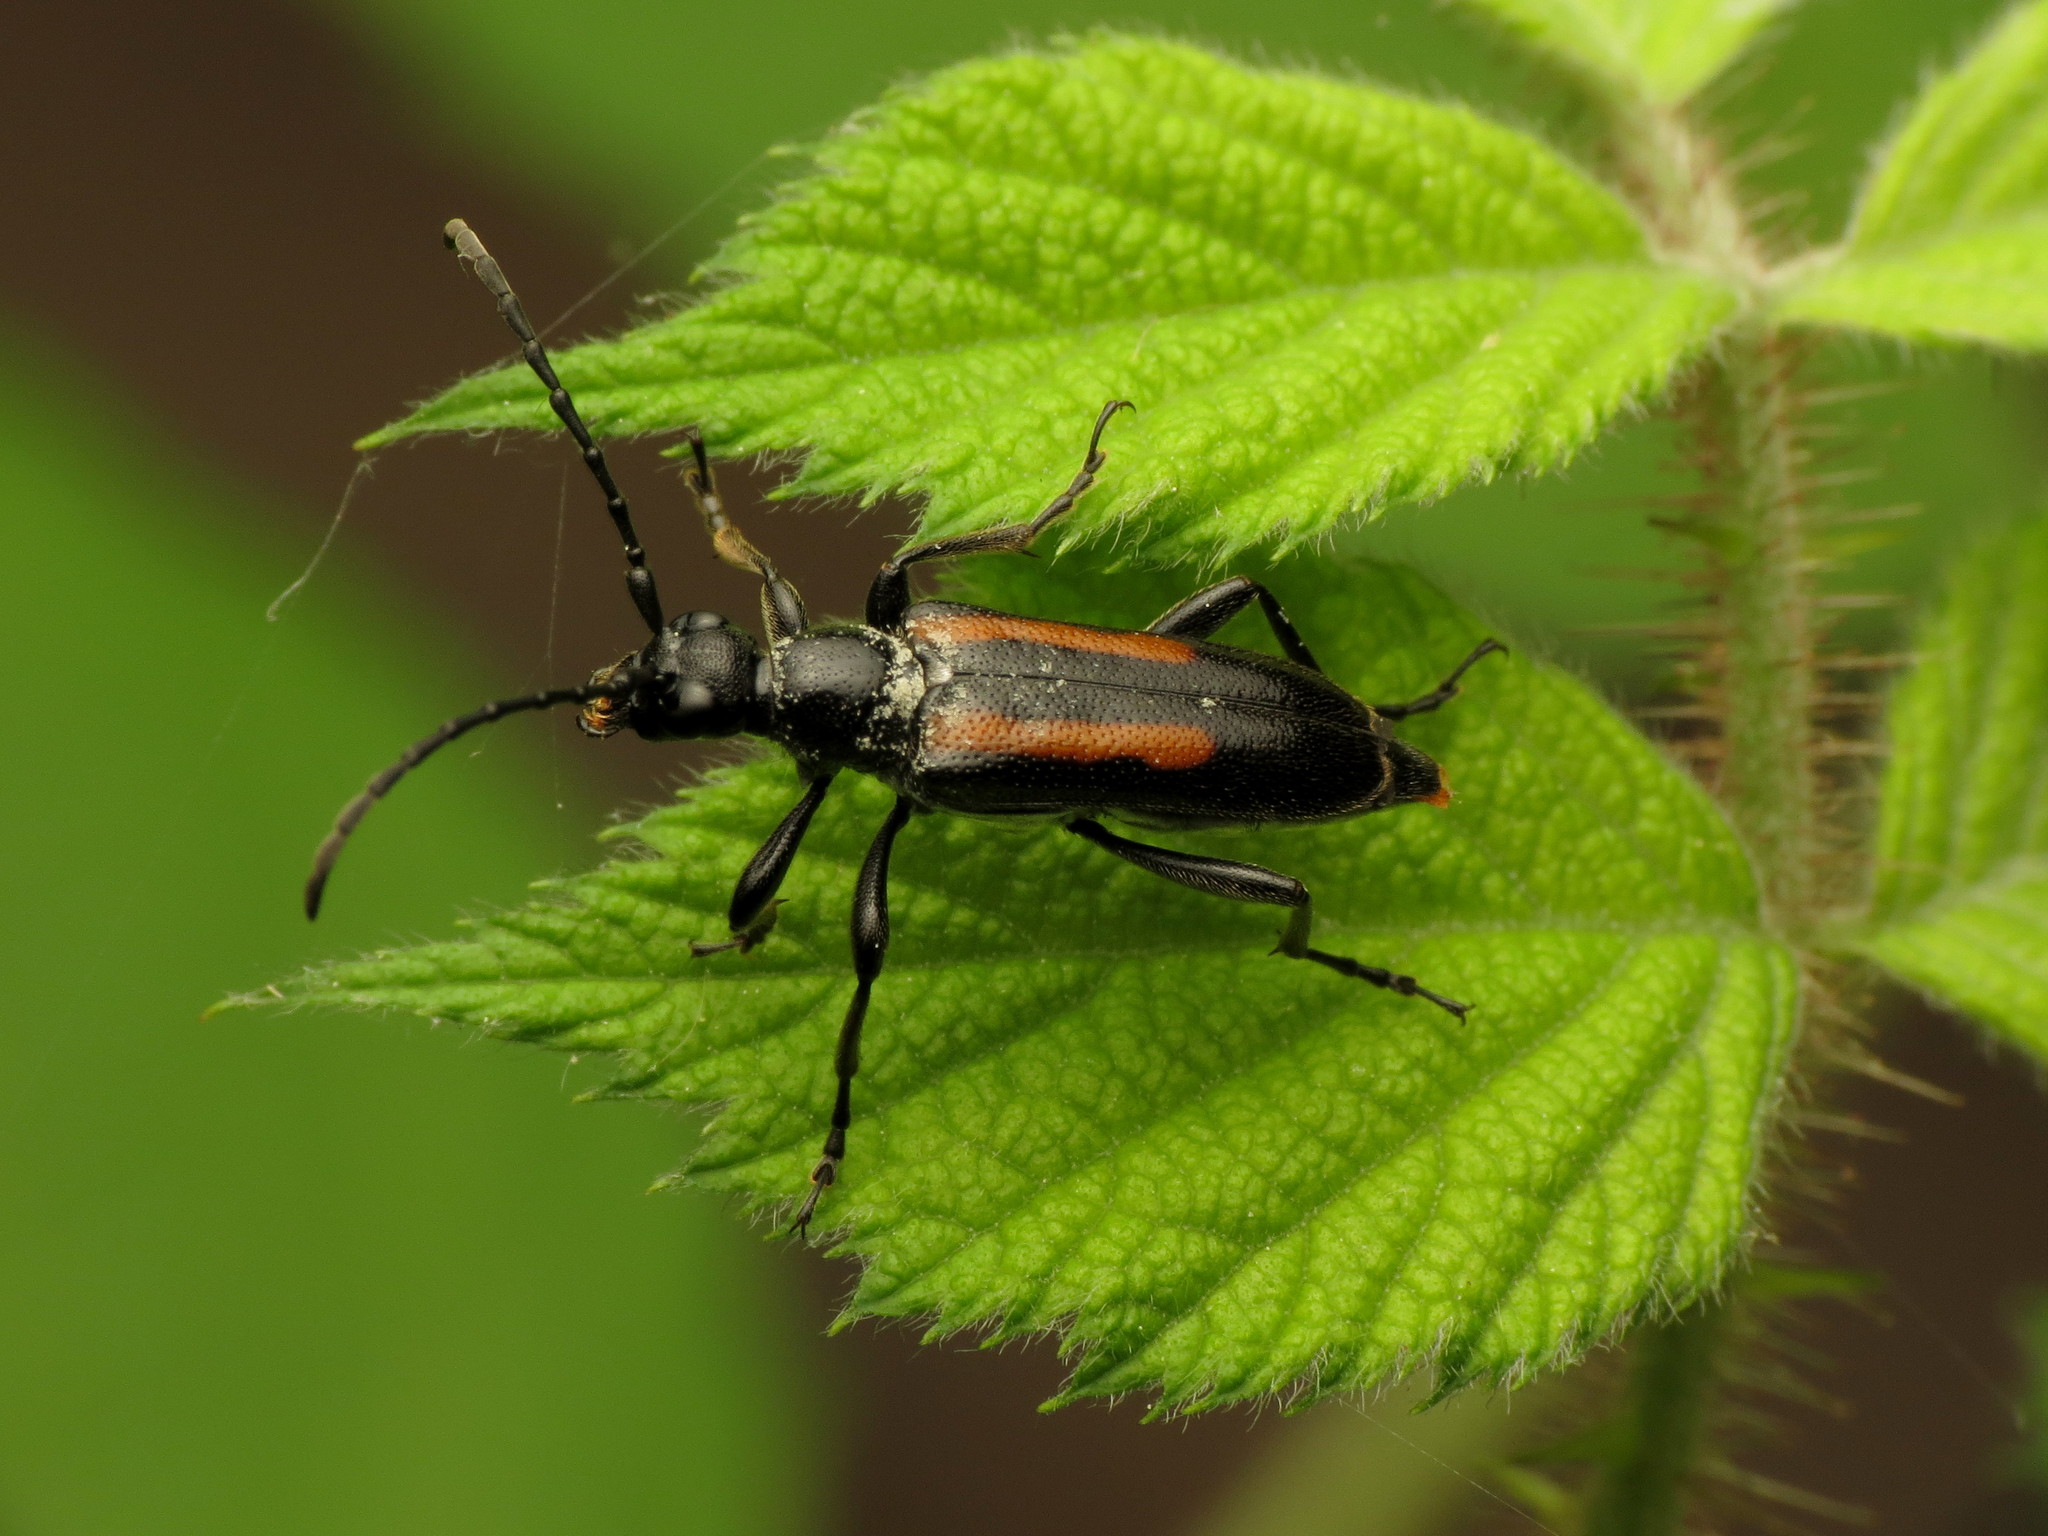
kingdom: Animalia
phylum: Arthropoda
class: Insecta
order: Coleoptera
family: Cerambycidae
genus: Strangalepta
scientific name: Strangalepta abbreviata
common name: Strangalepta flower longhorn beetle
